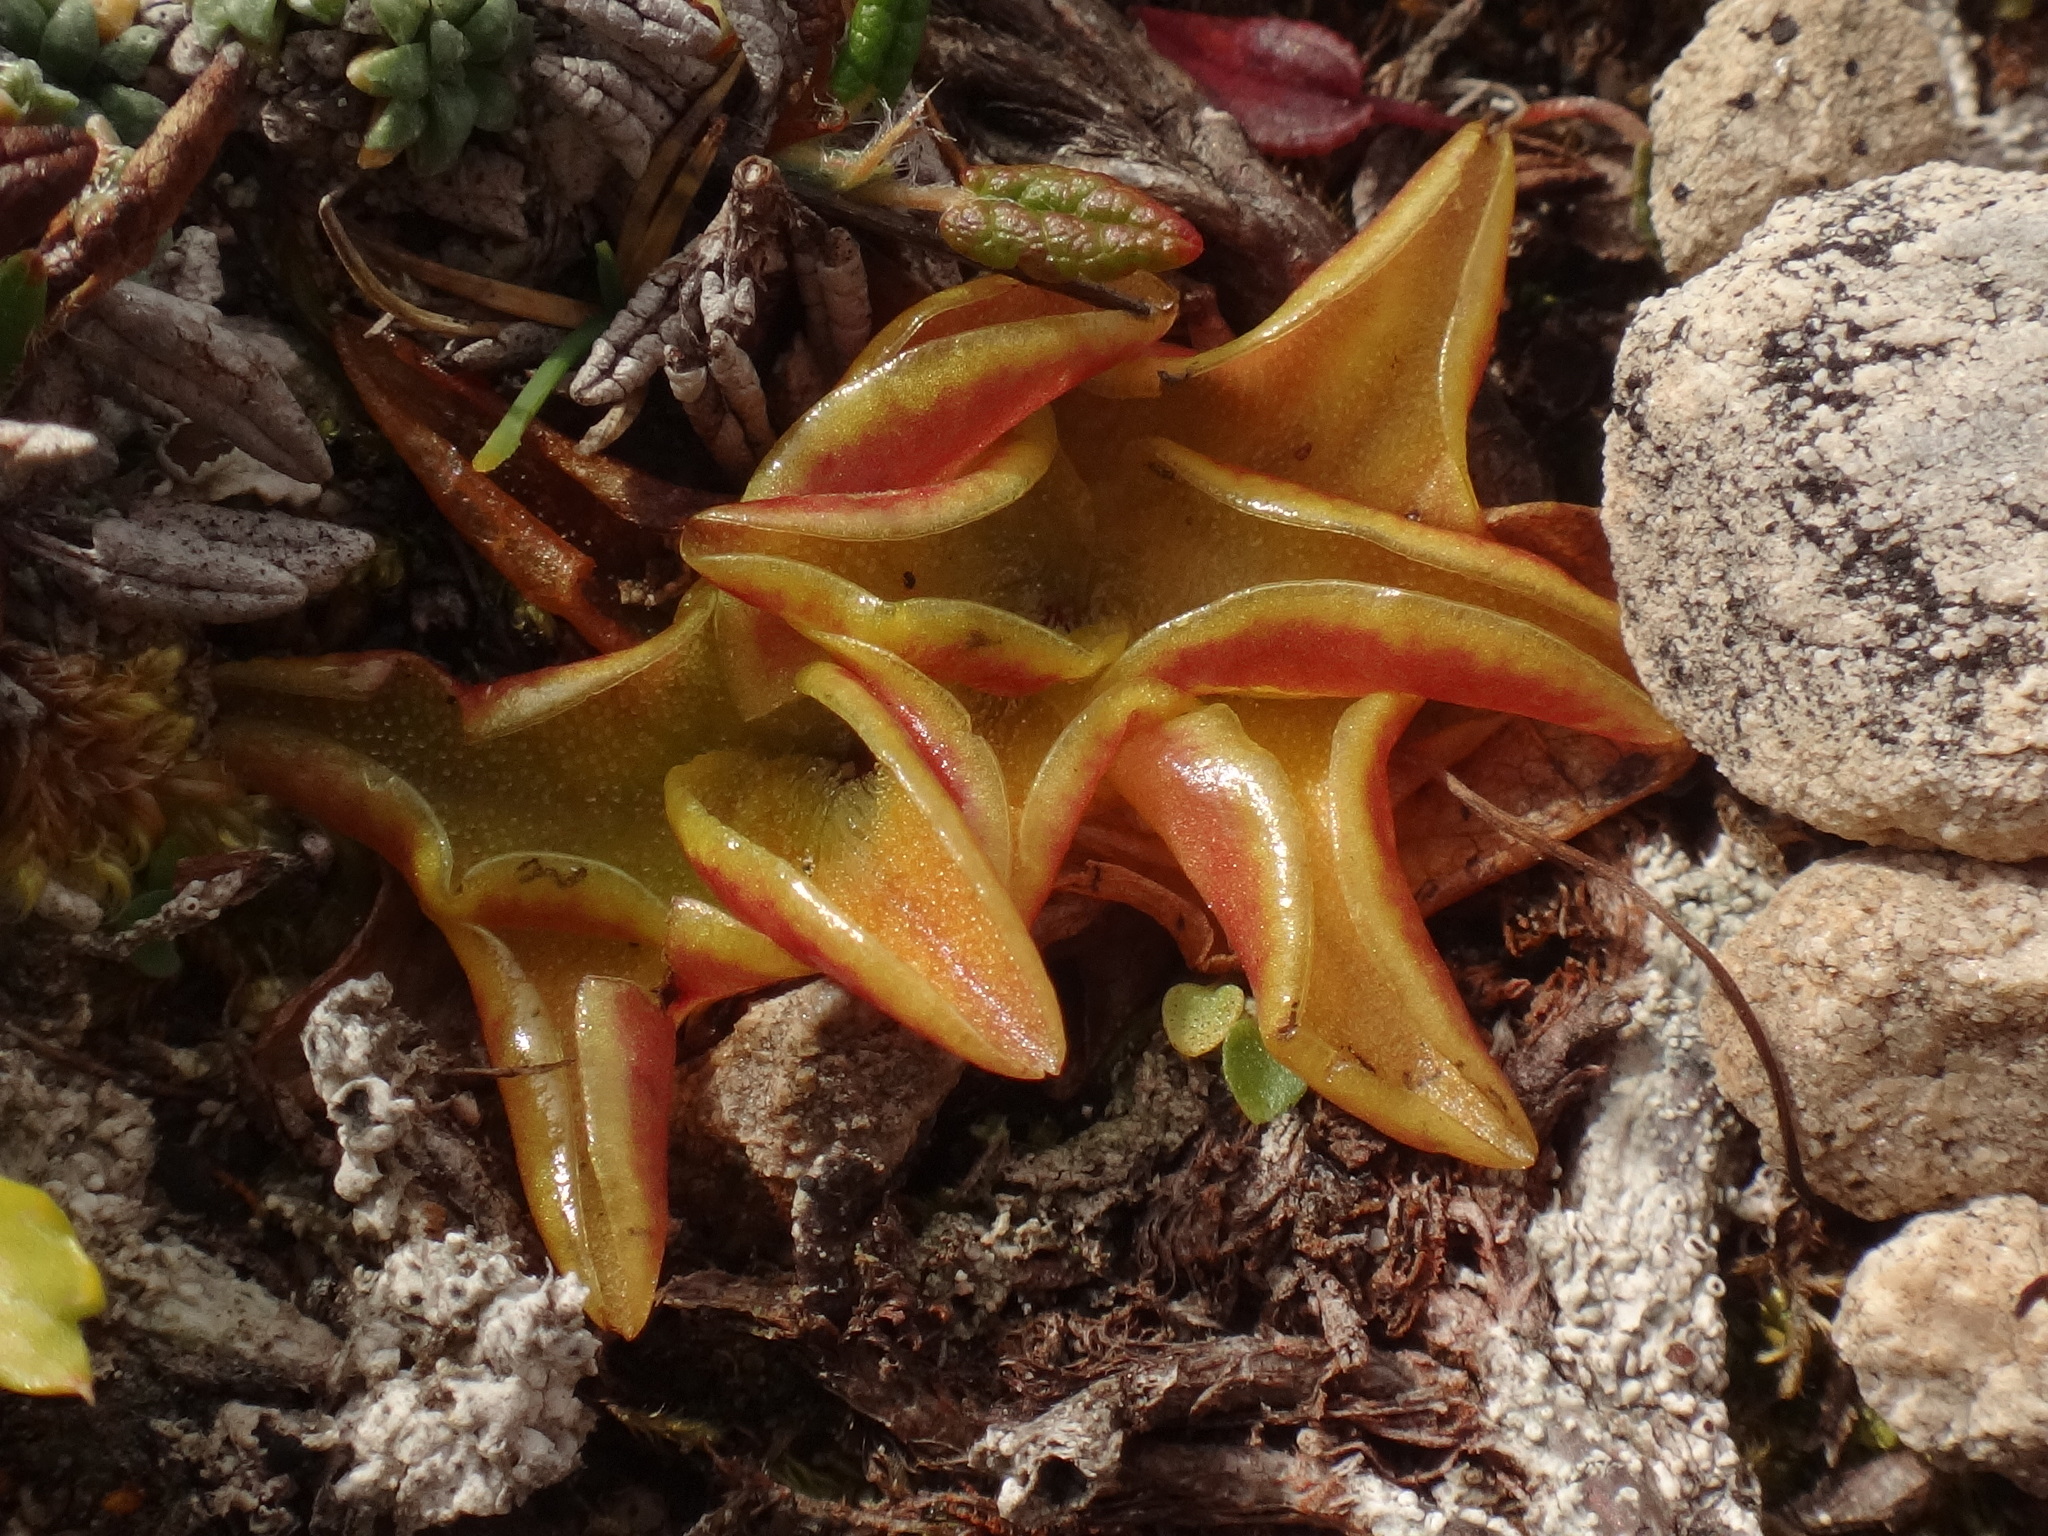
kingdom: Plantae
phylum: Tracheophyta
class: Magnoliopsida
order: Lamiales
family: Lentibulariaceae
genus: Pinguicula
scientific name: Pinguicula alpina
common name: Alpine butterwort
